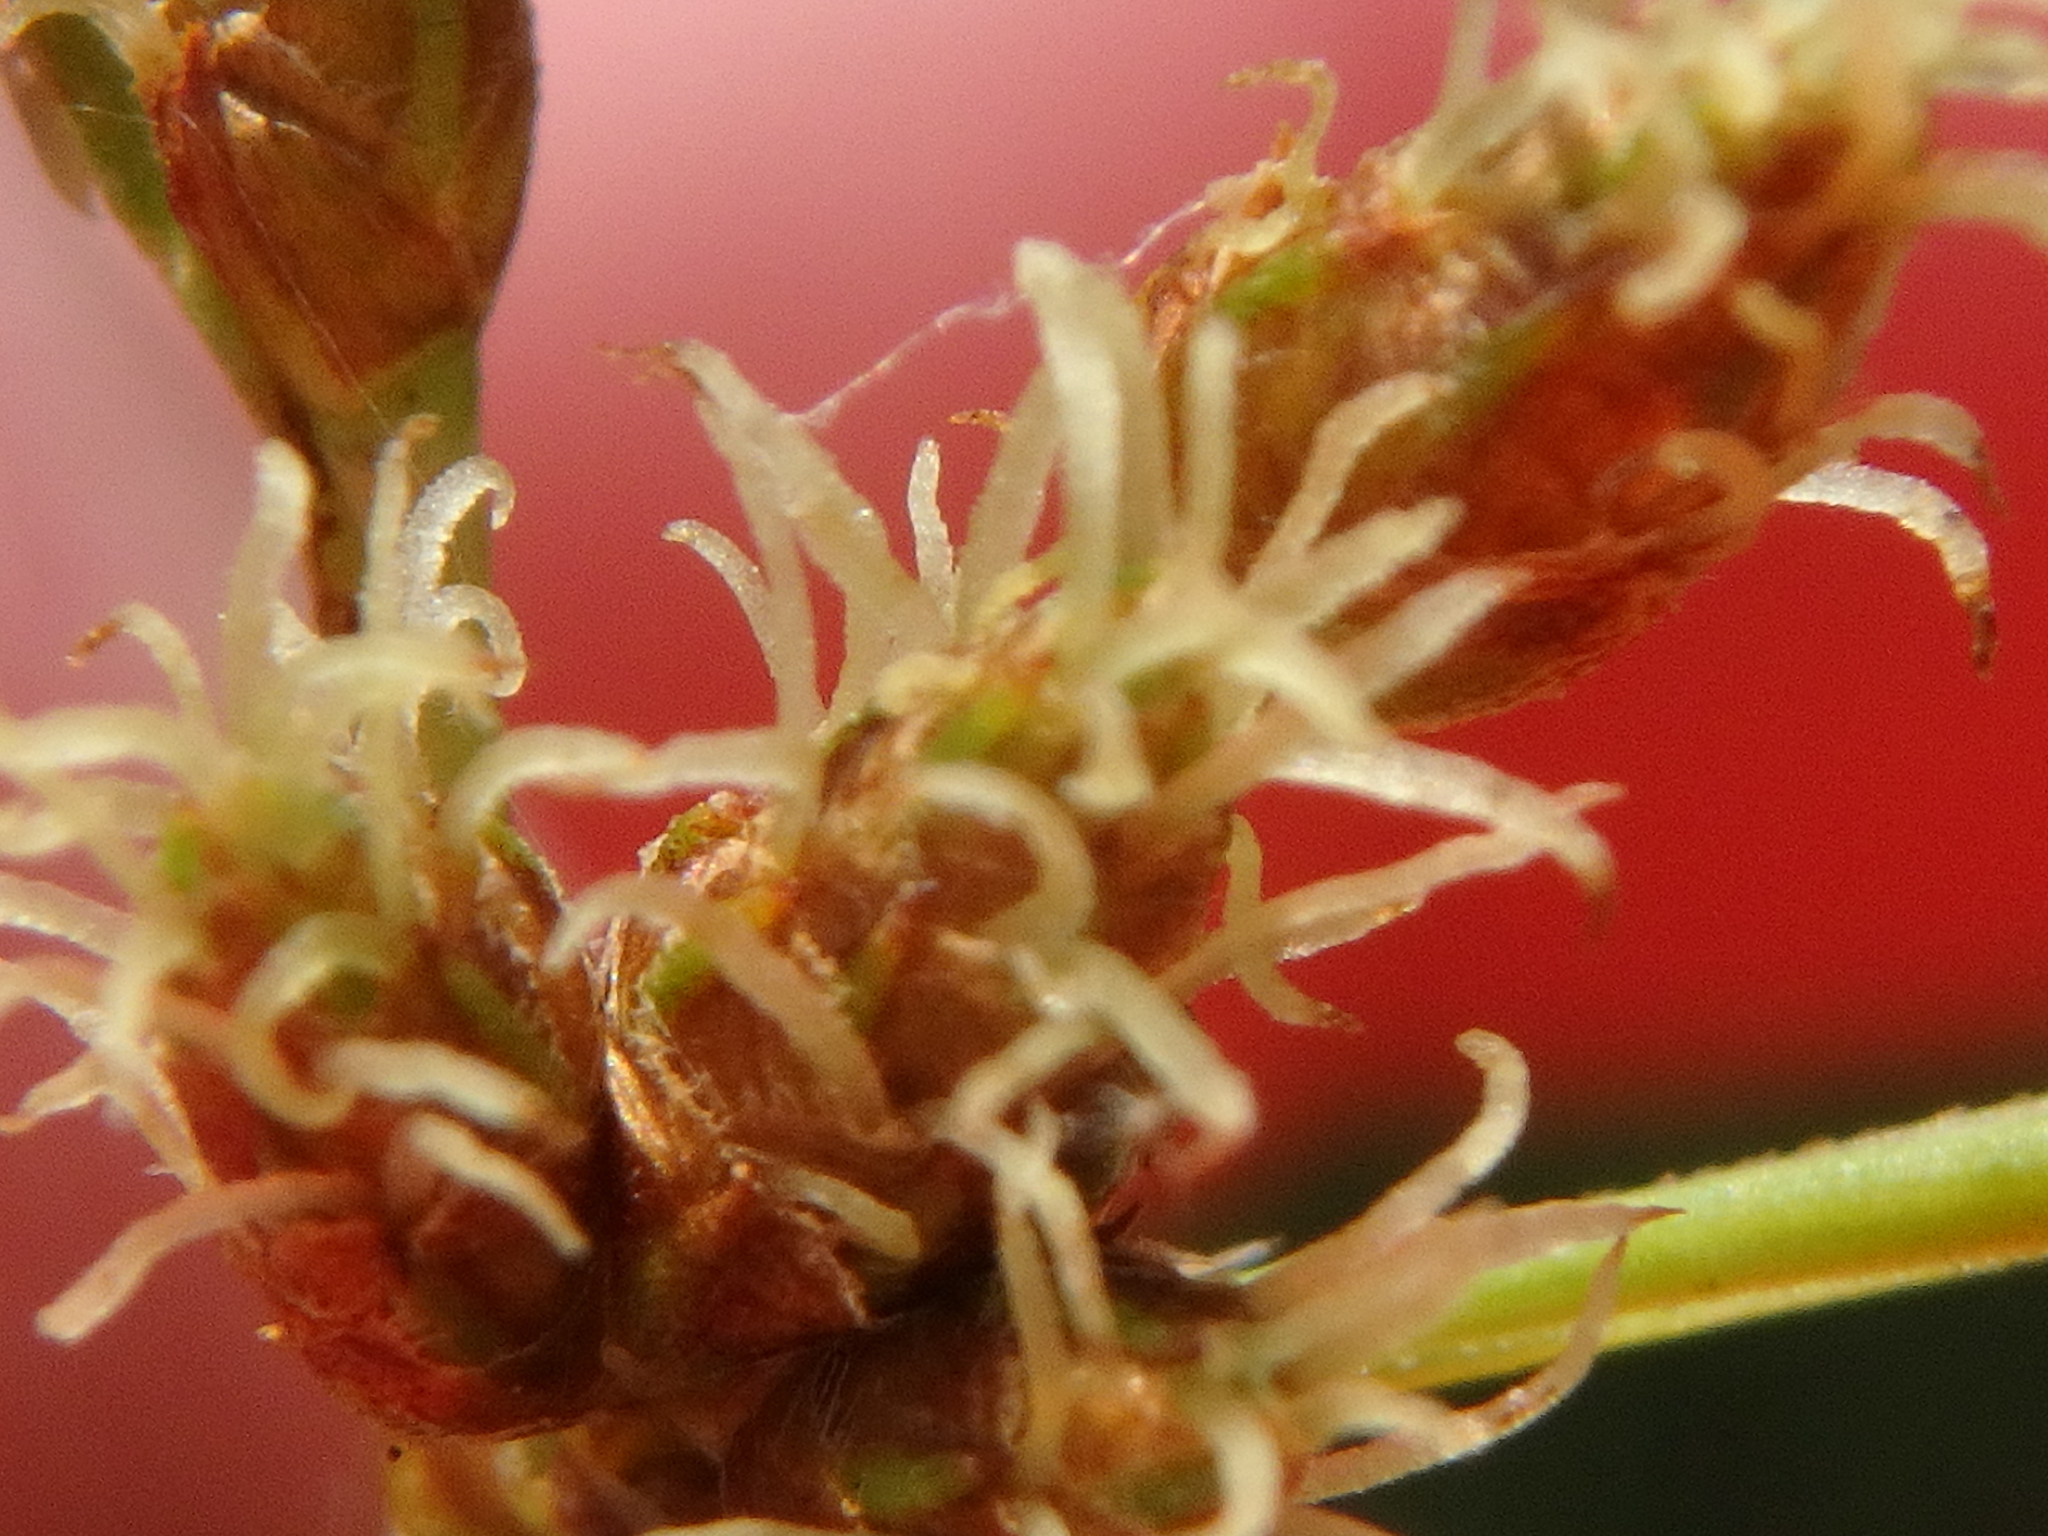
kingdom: Plantae
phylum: Tracheophyta
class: Liliopsida
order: Poales
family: Cyperaceae
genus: Schoenoplectus
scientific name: Schoenoplectus tabernaemontani
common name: Grey club-rush
